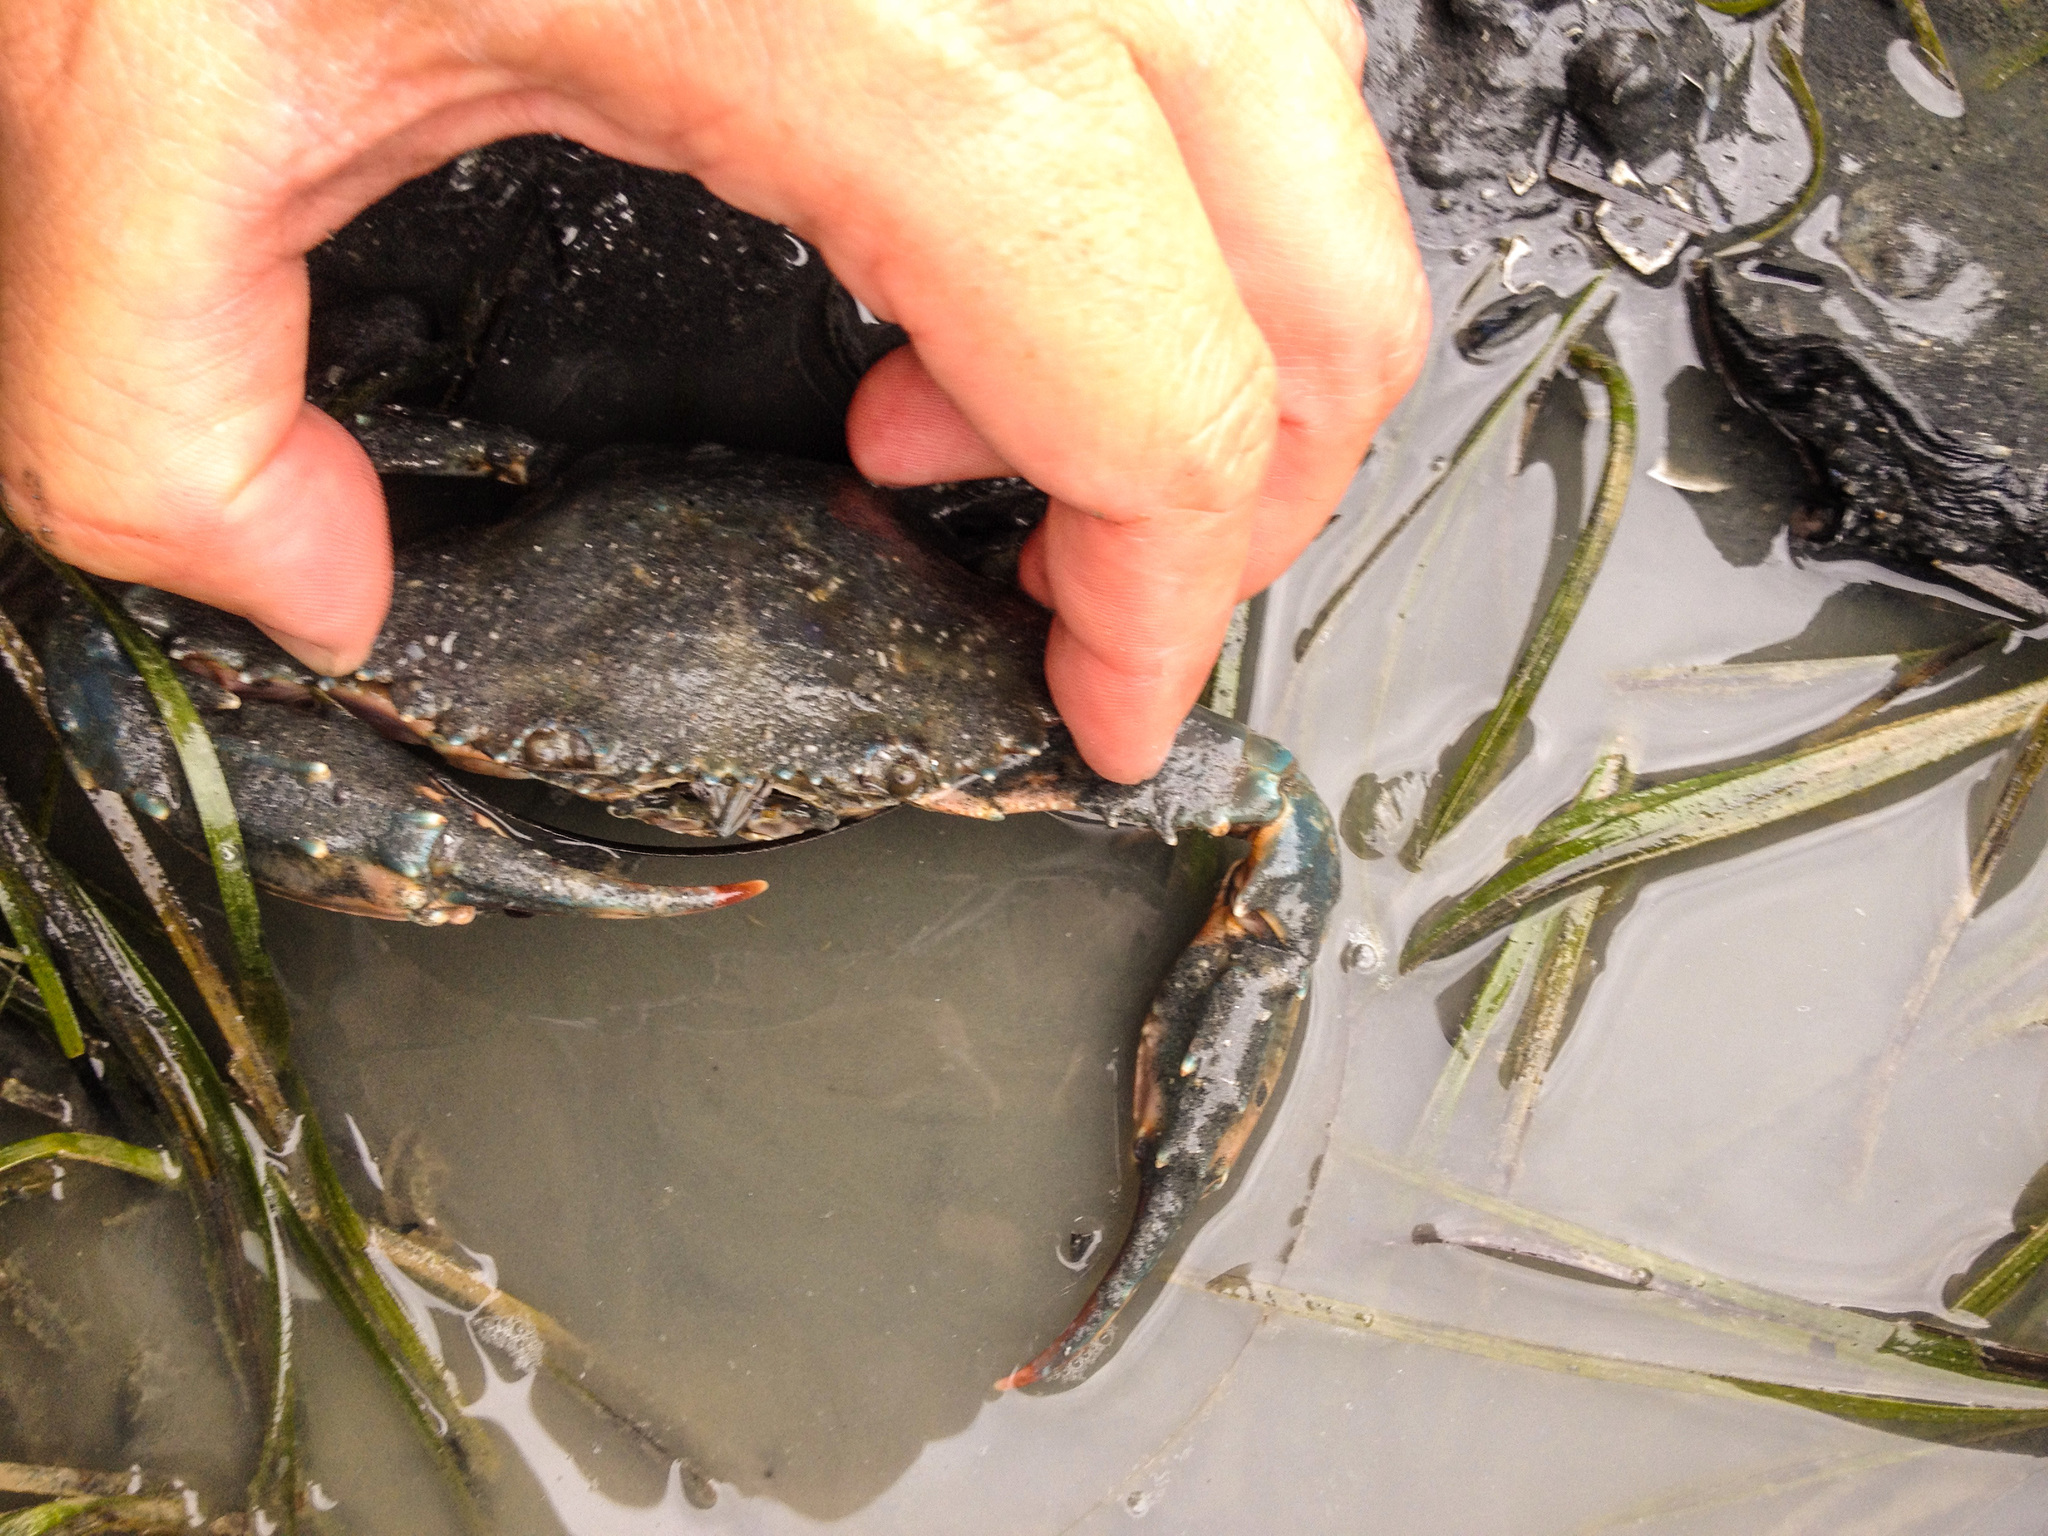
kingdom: Animalia
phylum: Arthropoda
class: Malacostraca
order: Decapoda
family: Portunidae
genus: Charybdis
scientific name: Charybdis japonica
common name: Asian paddle crab
